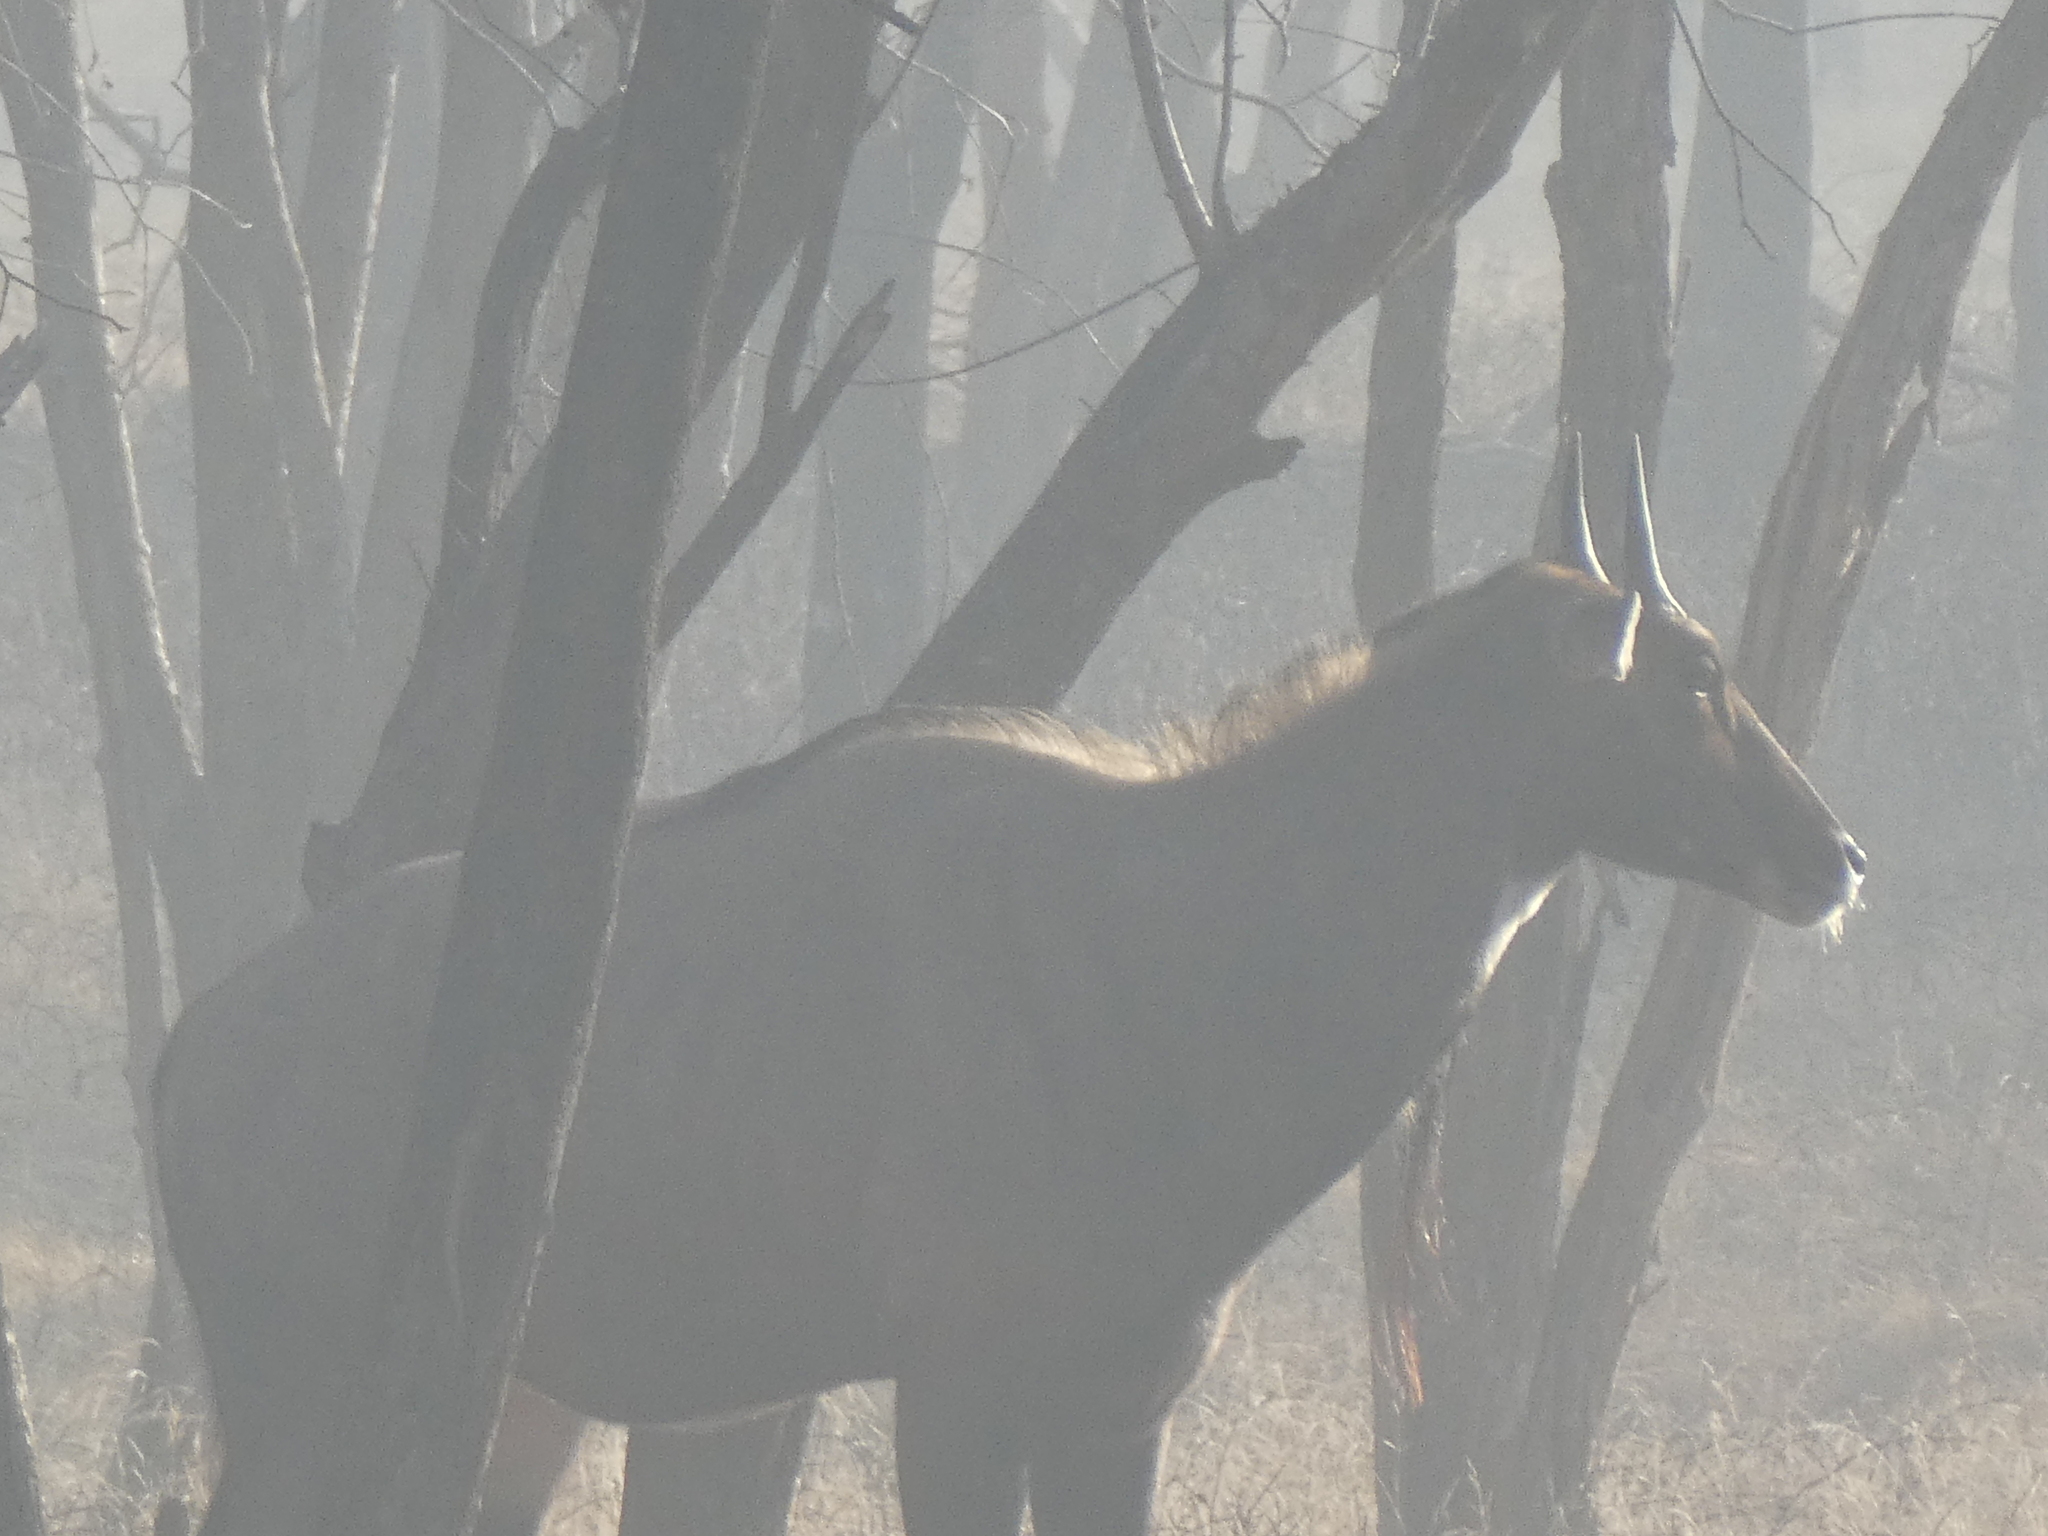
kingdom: Animalia
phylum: Chordata
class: Mammalia
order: Artiodactyla
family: Bovidae
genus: Boselaphus
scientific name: Boselaphus tragocamelus
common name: Nilgai
